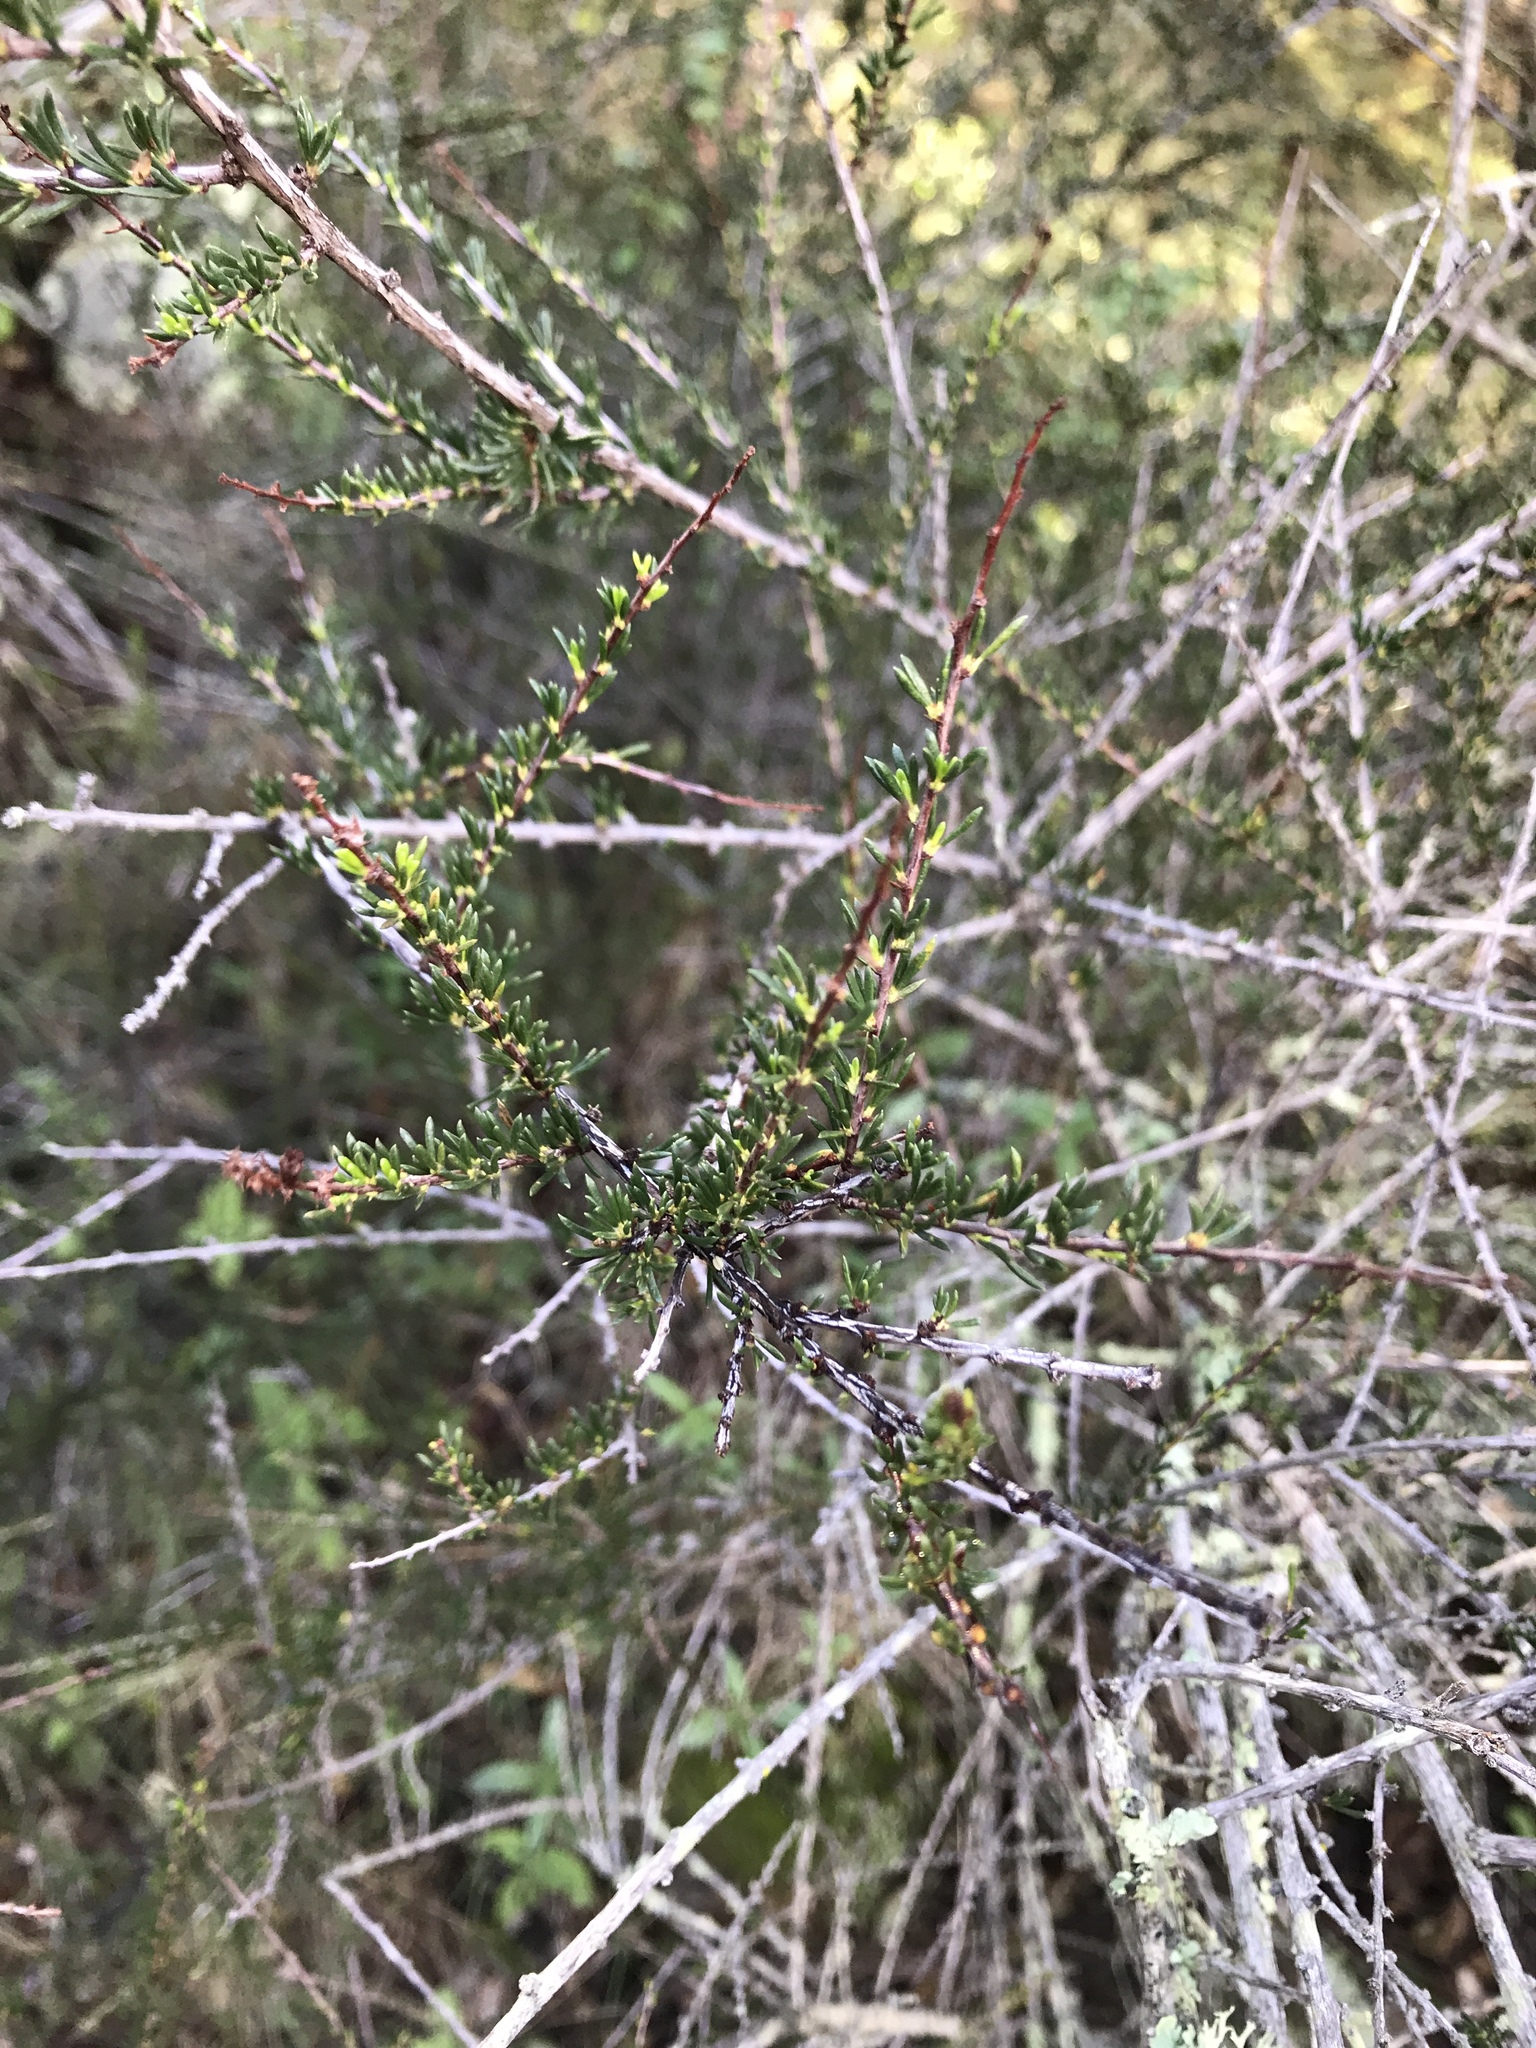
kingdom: Plantae
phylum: Tracheophyta
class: Magnoliopsida
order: Rosales
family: Rosaceae
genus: Adenostoma
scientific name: Adenostoma fasciculatum
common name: Chamise
